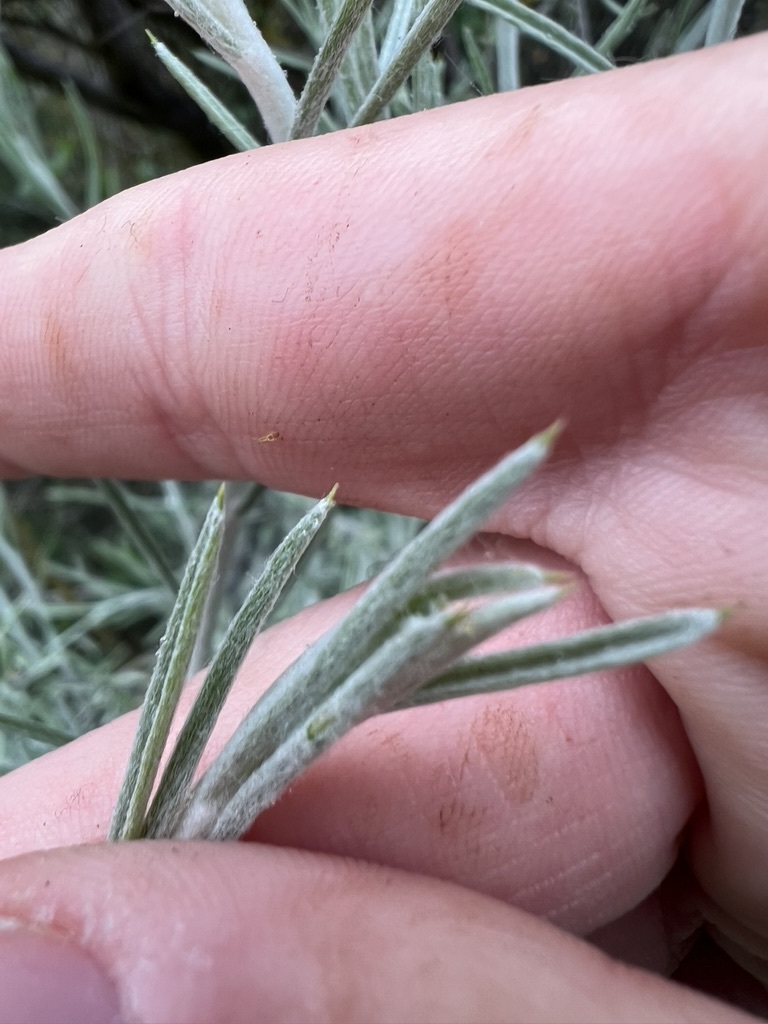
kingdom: Plantae
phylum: Tracheophyta
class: Magnoliopsida
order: Asterales
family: Asteraceae
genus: Tetradymia
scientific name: Tetradymia comosa
